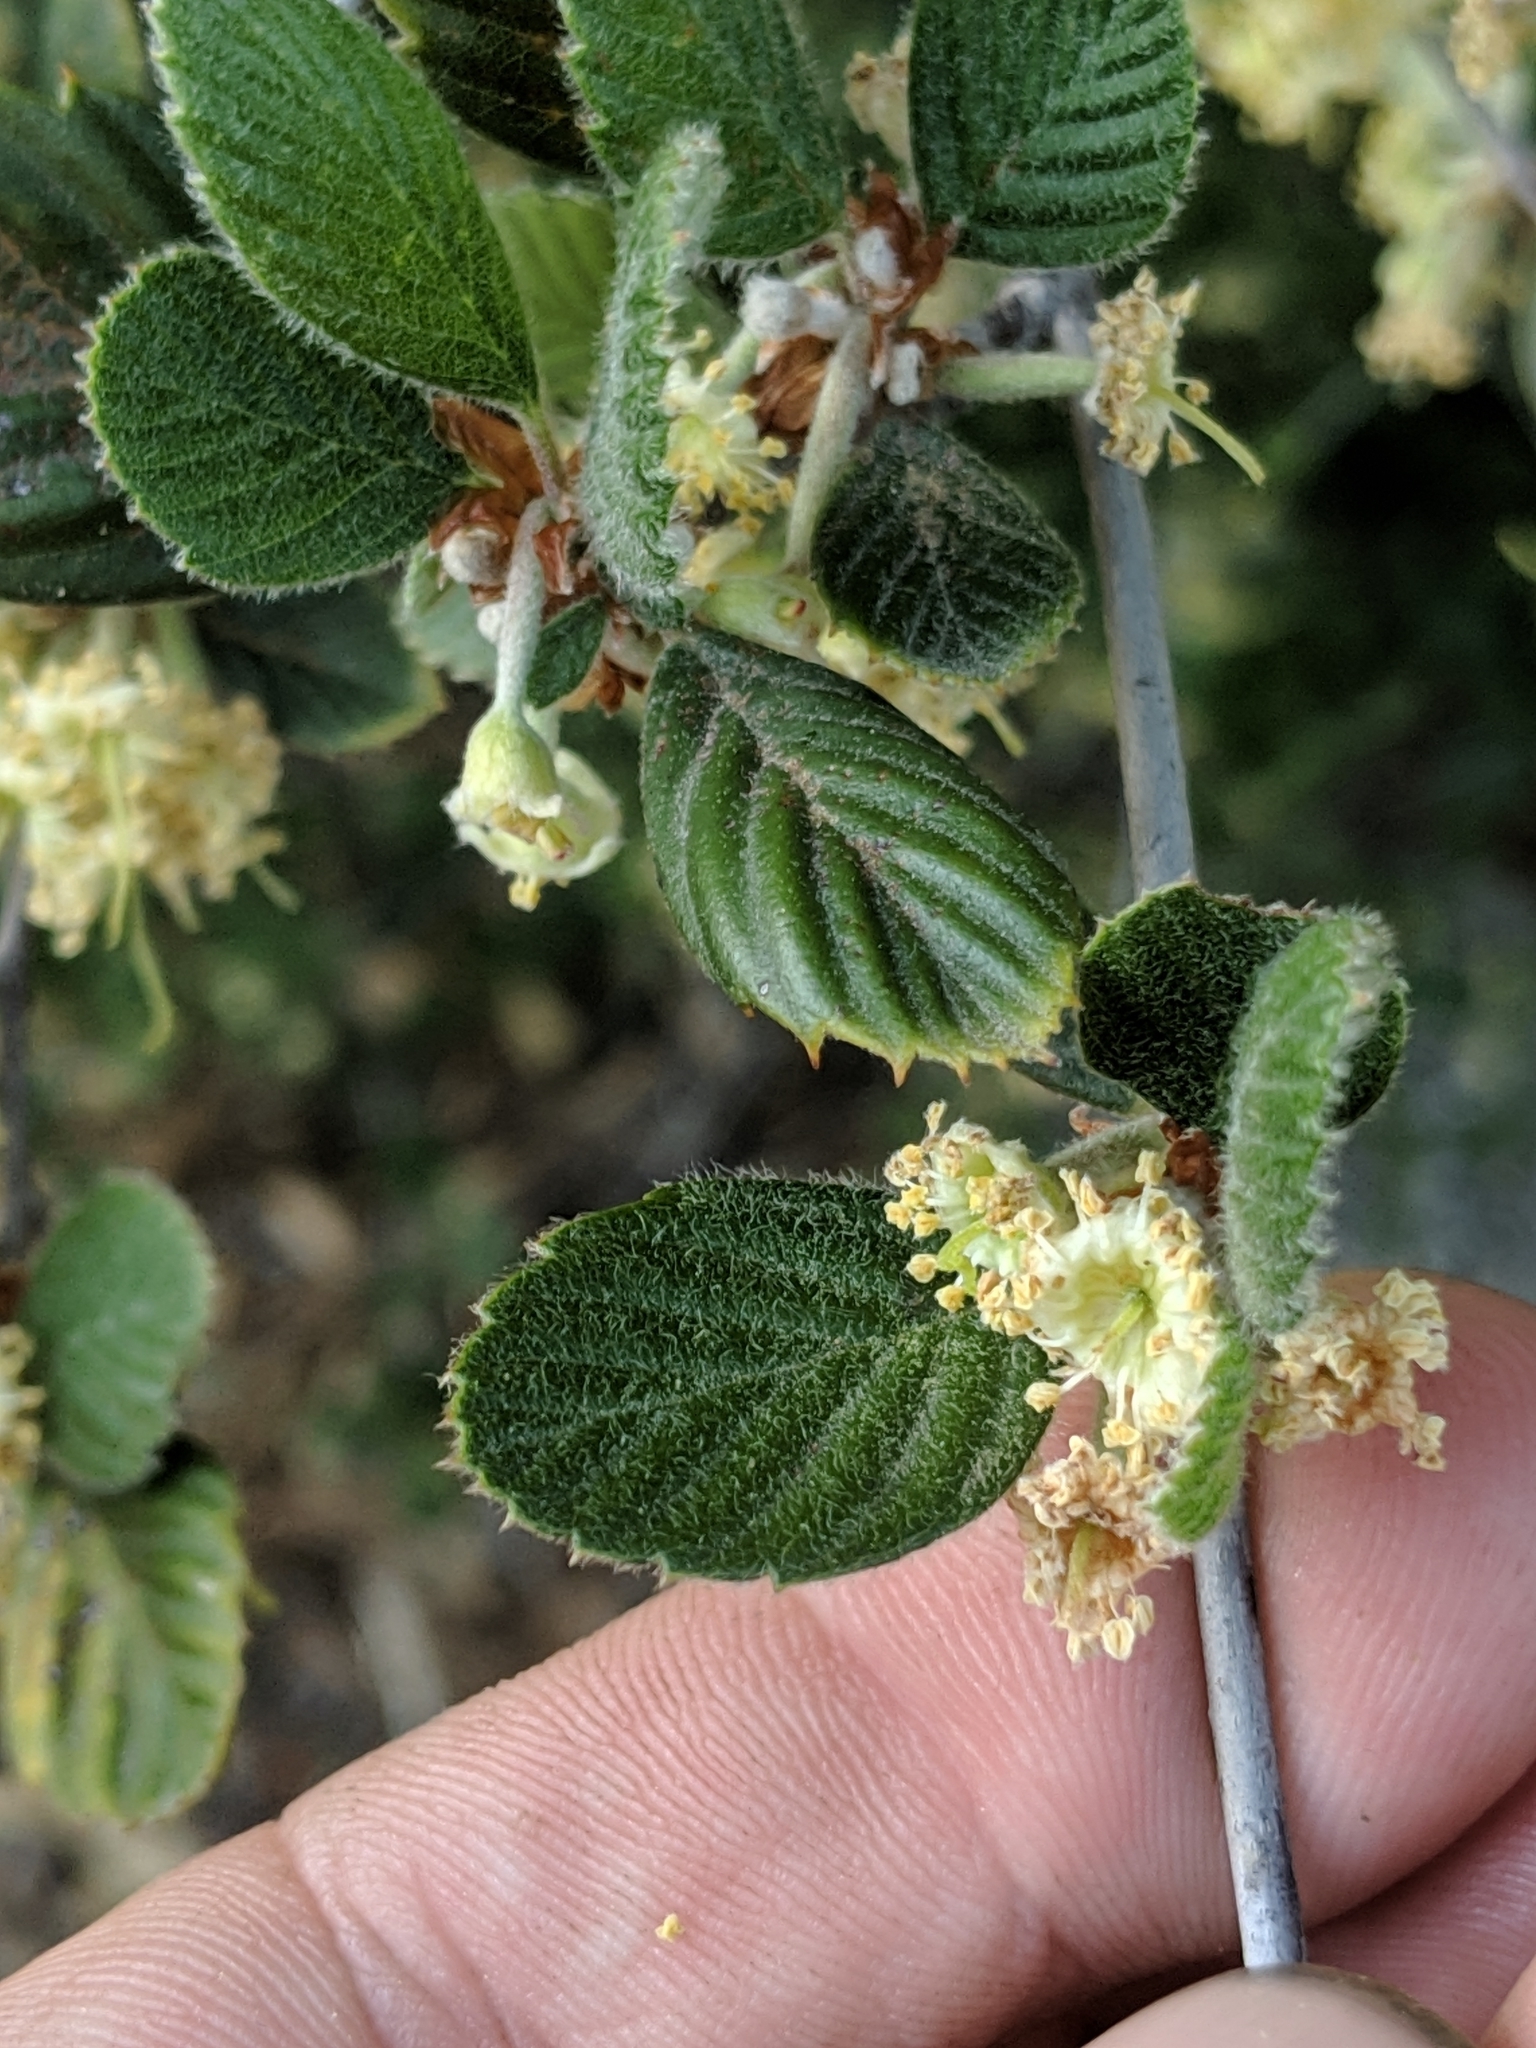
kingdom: Plantae
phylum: Tracheophyta
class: Magnoliopsida
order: Rosales
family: Rosaceae
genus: Cercocarpus
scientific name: Cercocarpus betuloides
